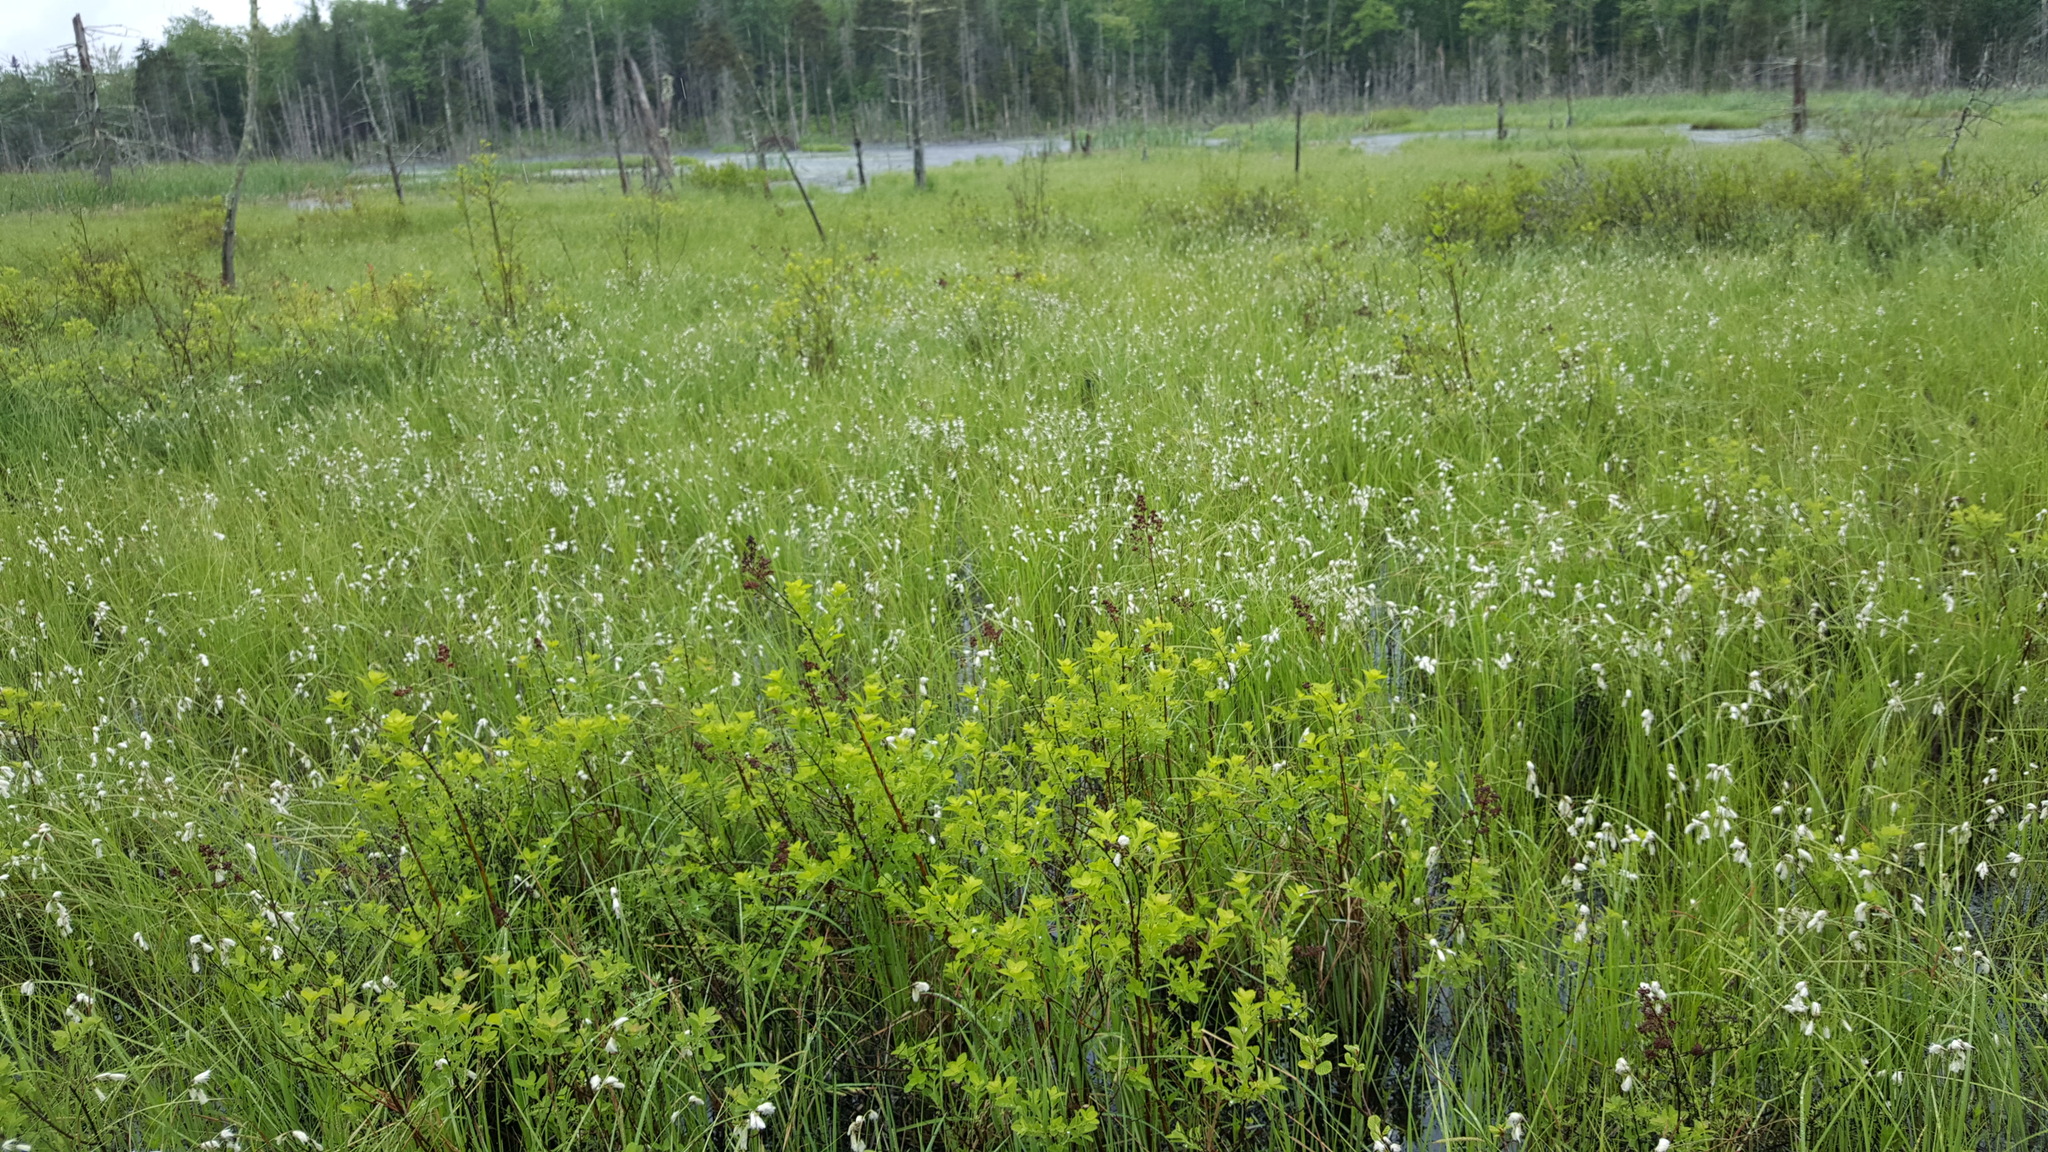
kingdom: Plantae
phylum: Tracheophyta
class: Magnoliopsida
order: Rosales
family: Rosaceae
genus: Spiraea
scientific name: Spiraea alba
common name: Pale bridewort
